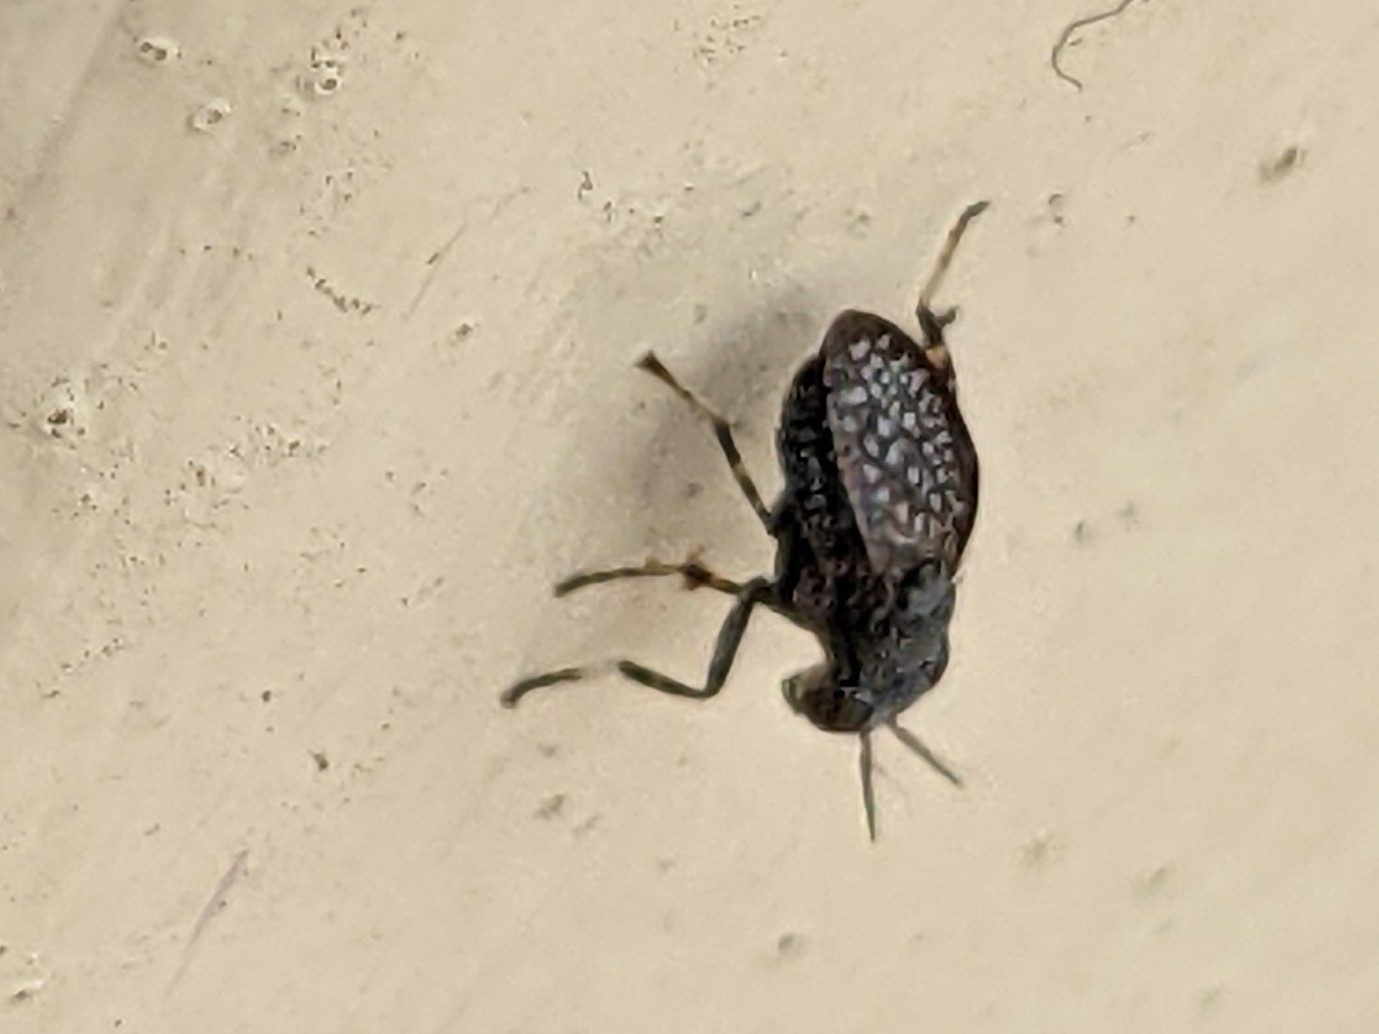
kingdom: Animalia
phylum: Arthropoda
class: Insecta
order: Diptera
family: Ulidiidae
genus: Stictomyia
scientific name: Stictomyia longicornis
